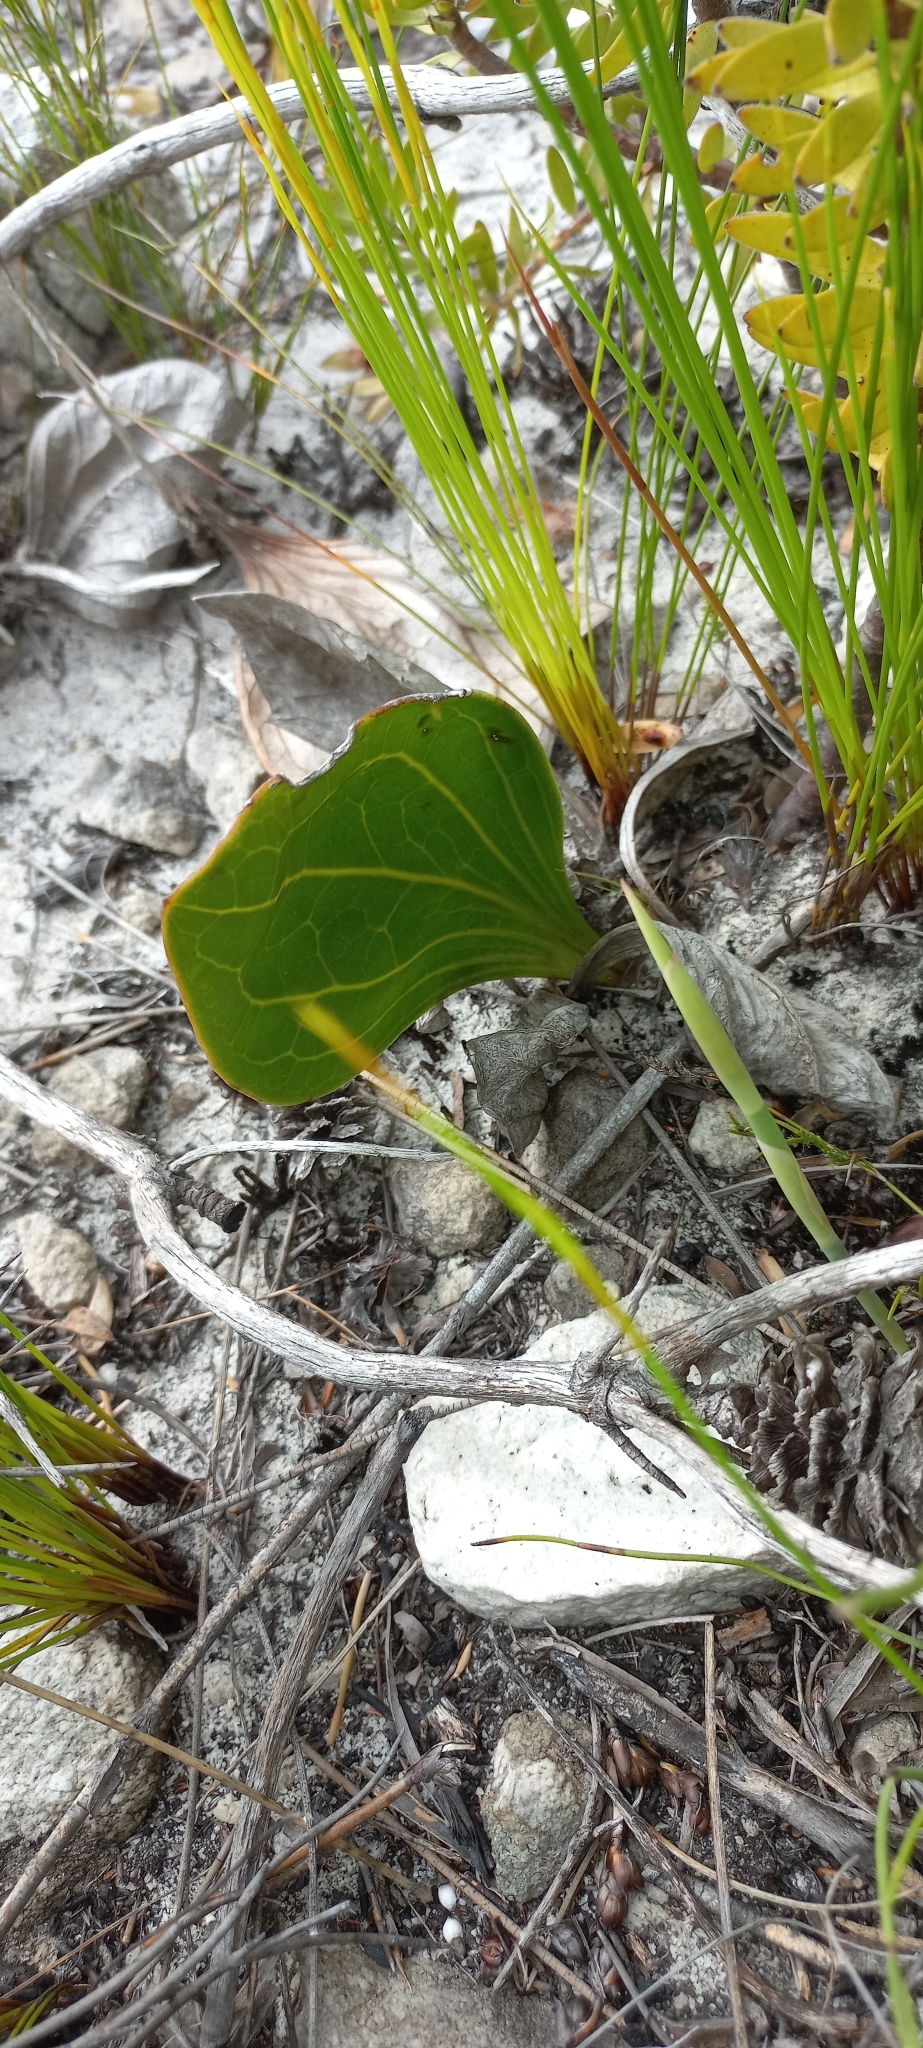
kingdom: Plantae
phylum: Tracheophyta
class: Magnoliopsida
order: Asterales
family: Asteraceae
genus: Mairia
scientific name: Mairia coriacea
